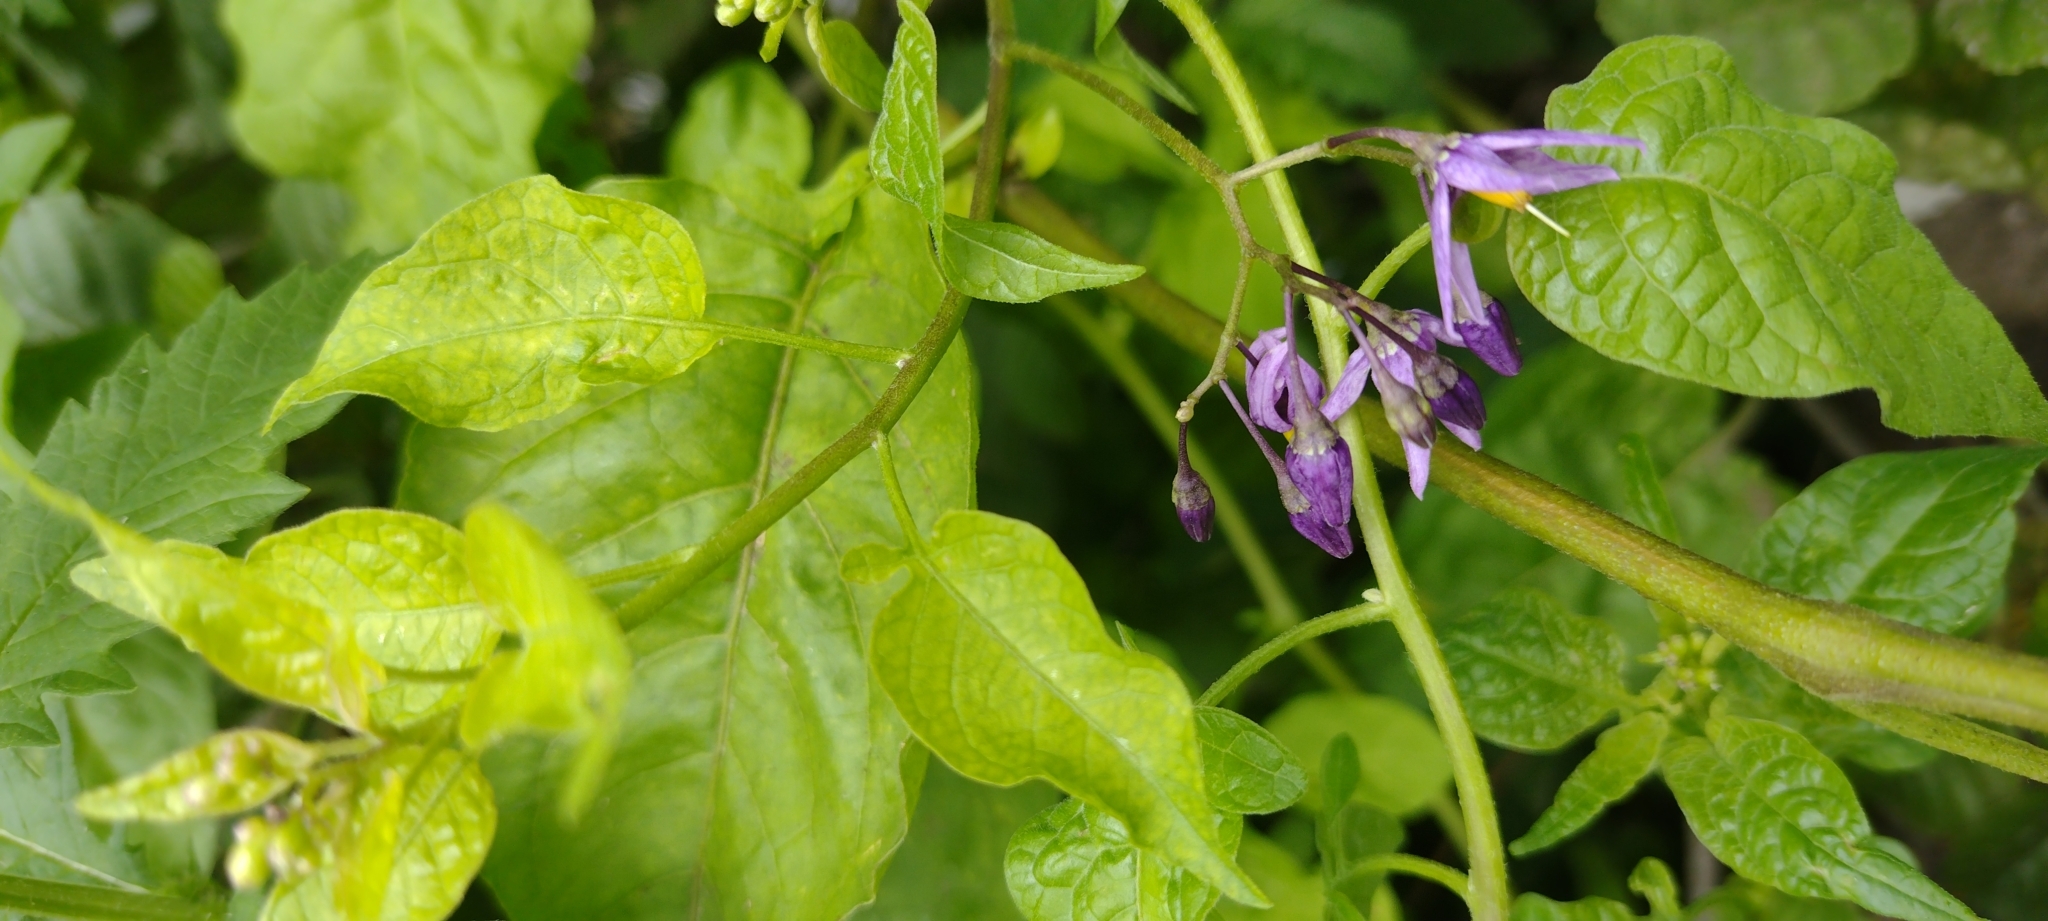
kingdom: Plantae
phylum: Tracheophyta
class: Magnoliopsida
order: Solanales
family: Solanaceae
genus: Solanum
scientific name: Solanum dulcamara
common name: Climbing nightshade
